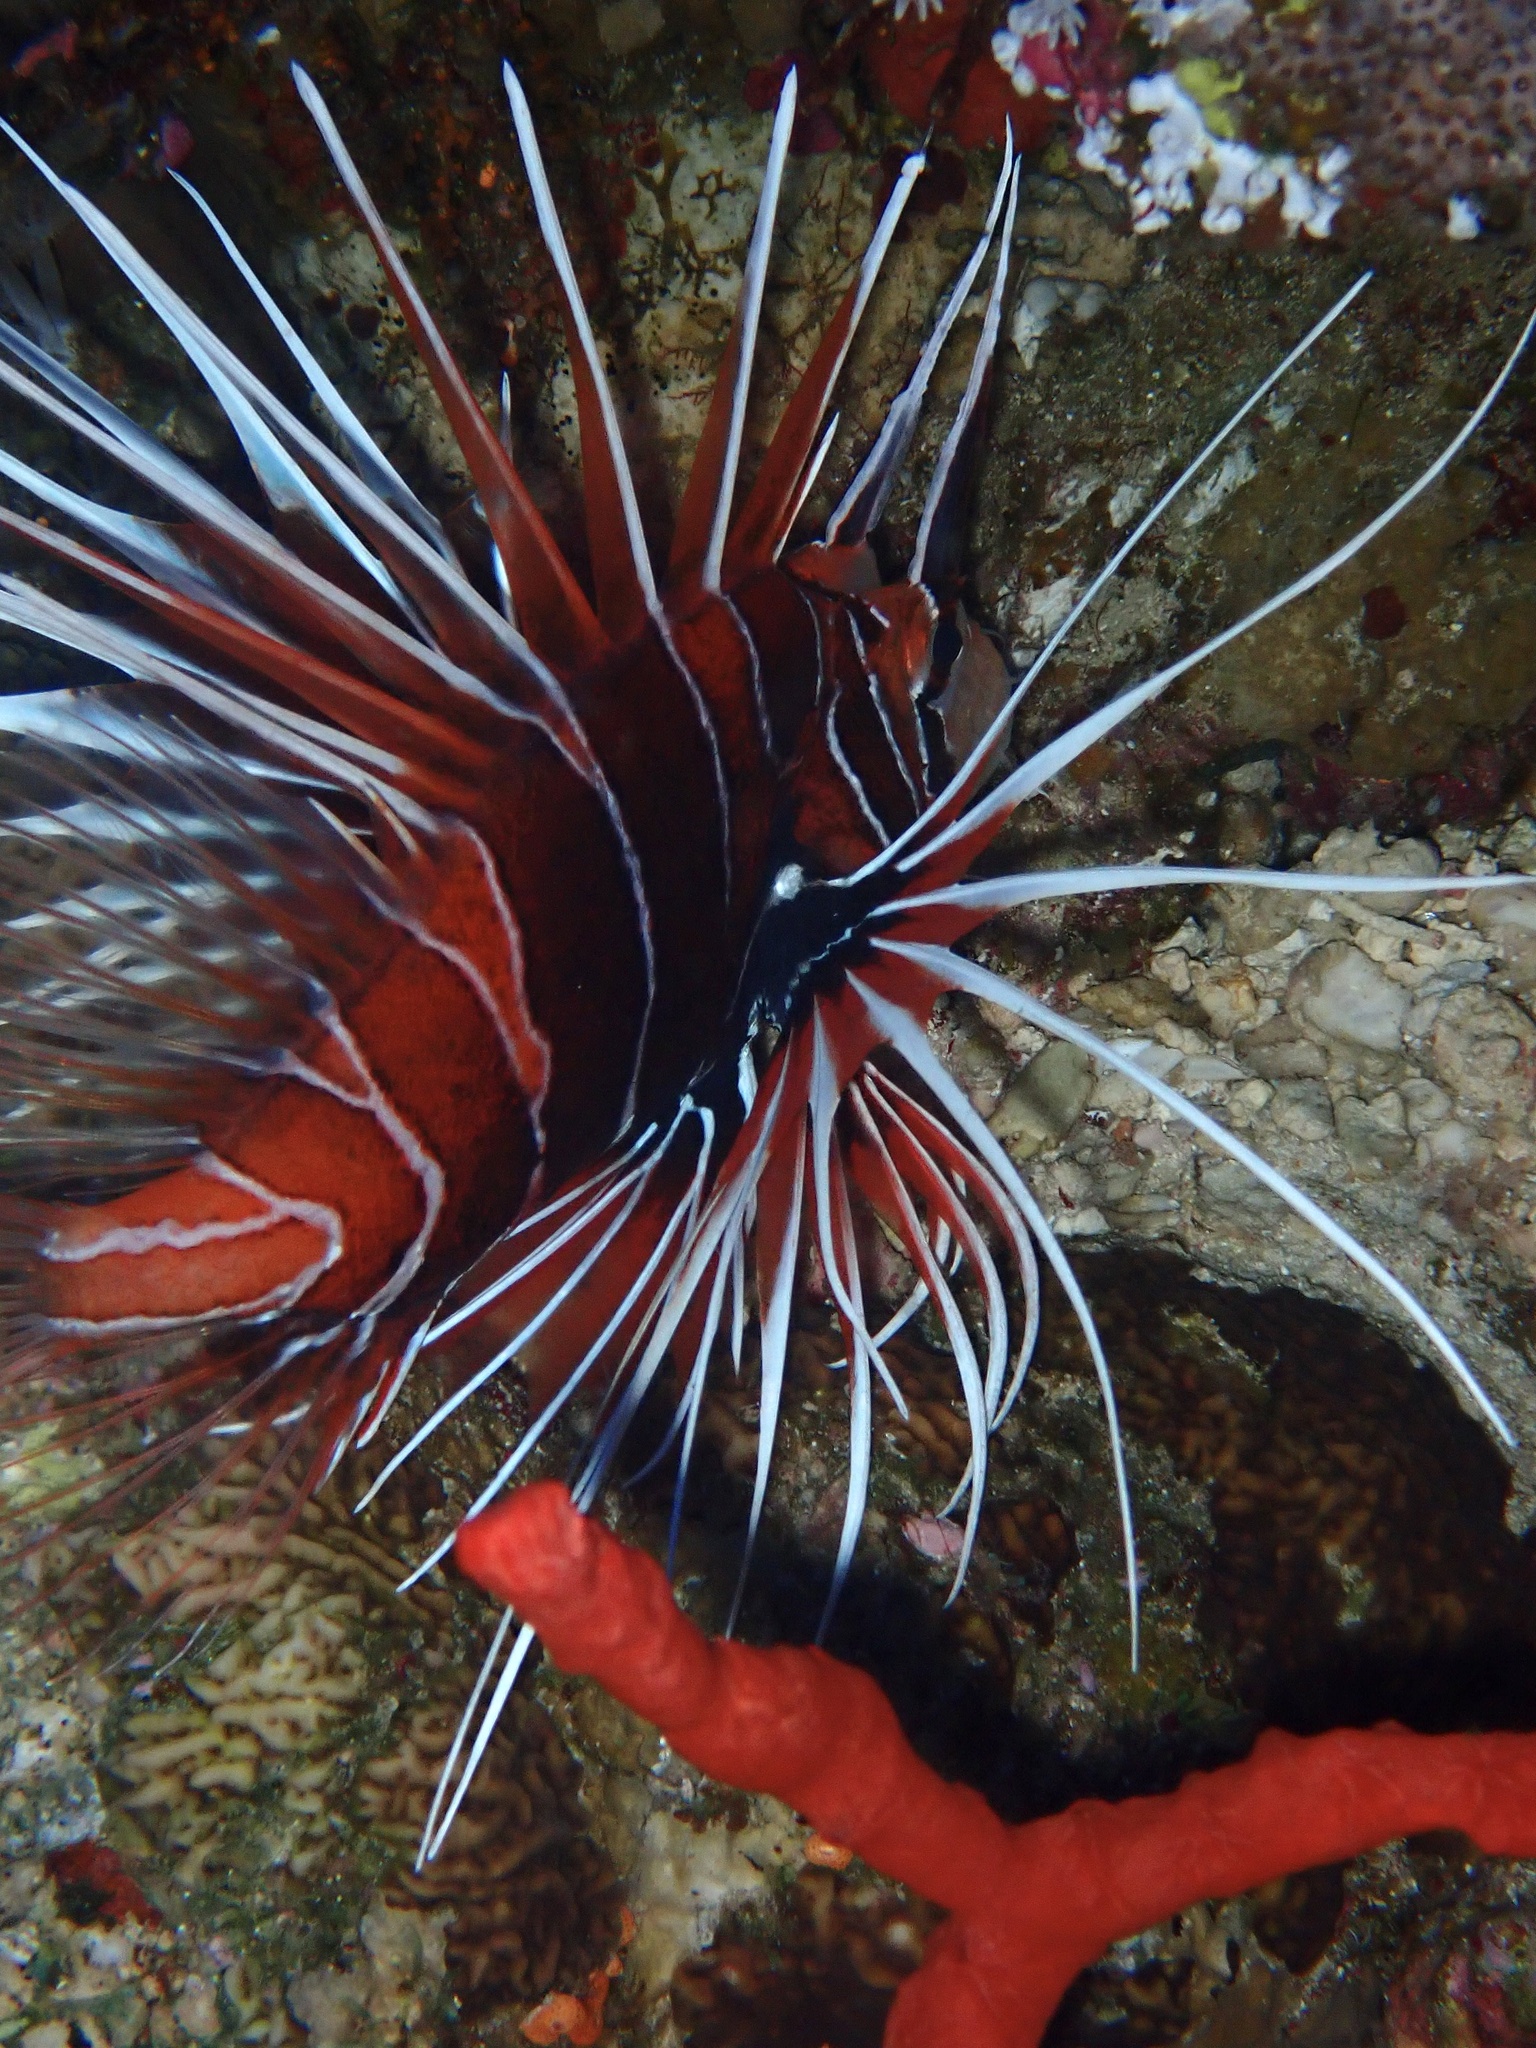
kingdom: Animalia
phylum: Chordata
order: Scorpaeniformes
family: Scorpaenidae
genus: Pterois
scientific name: Pterois cincta
